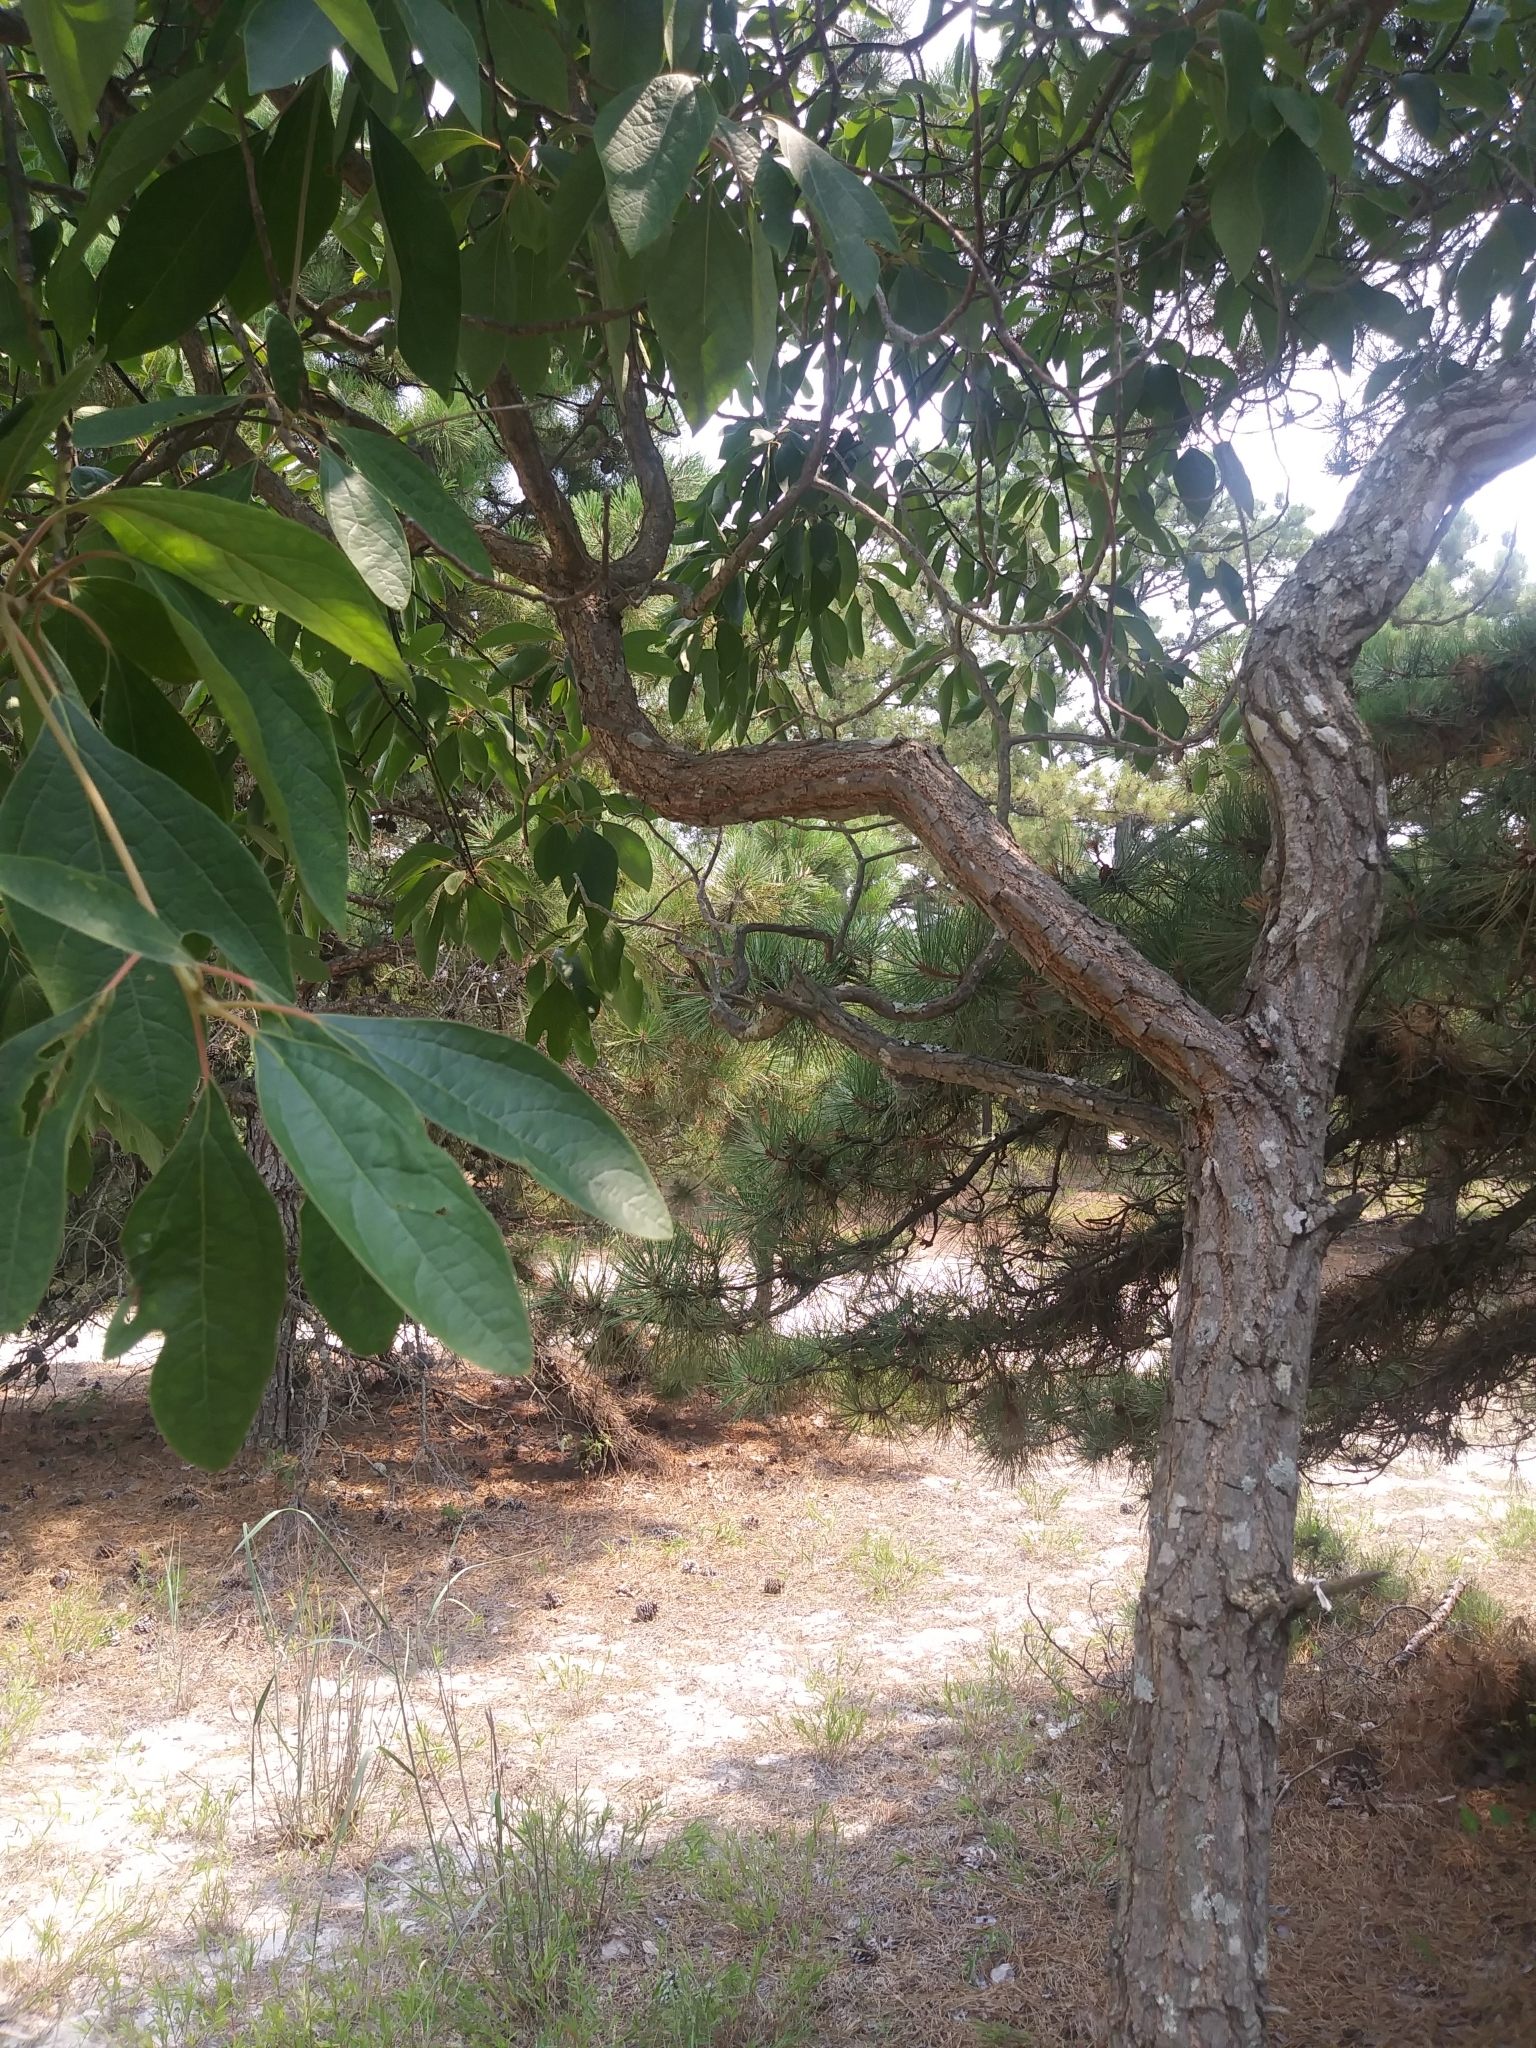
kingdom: Plantae
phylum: Tracheophyta
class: Magnoliopsida
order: Laurales
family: Lauraceae
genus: Sassafras
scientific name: Sassafras albidum
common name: Sassafras
